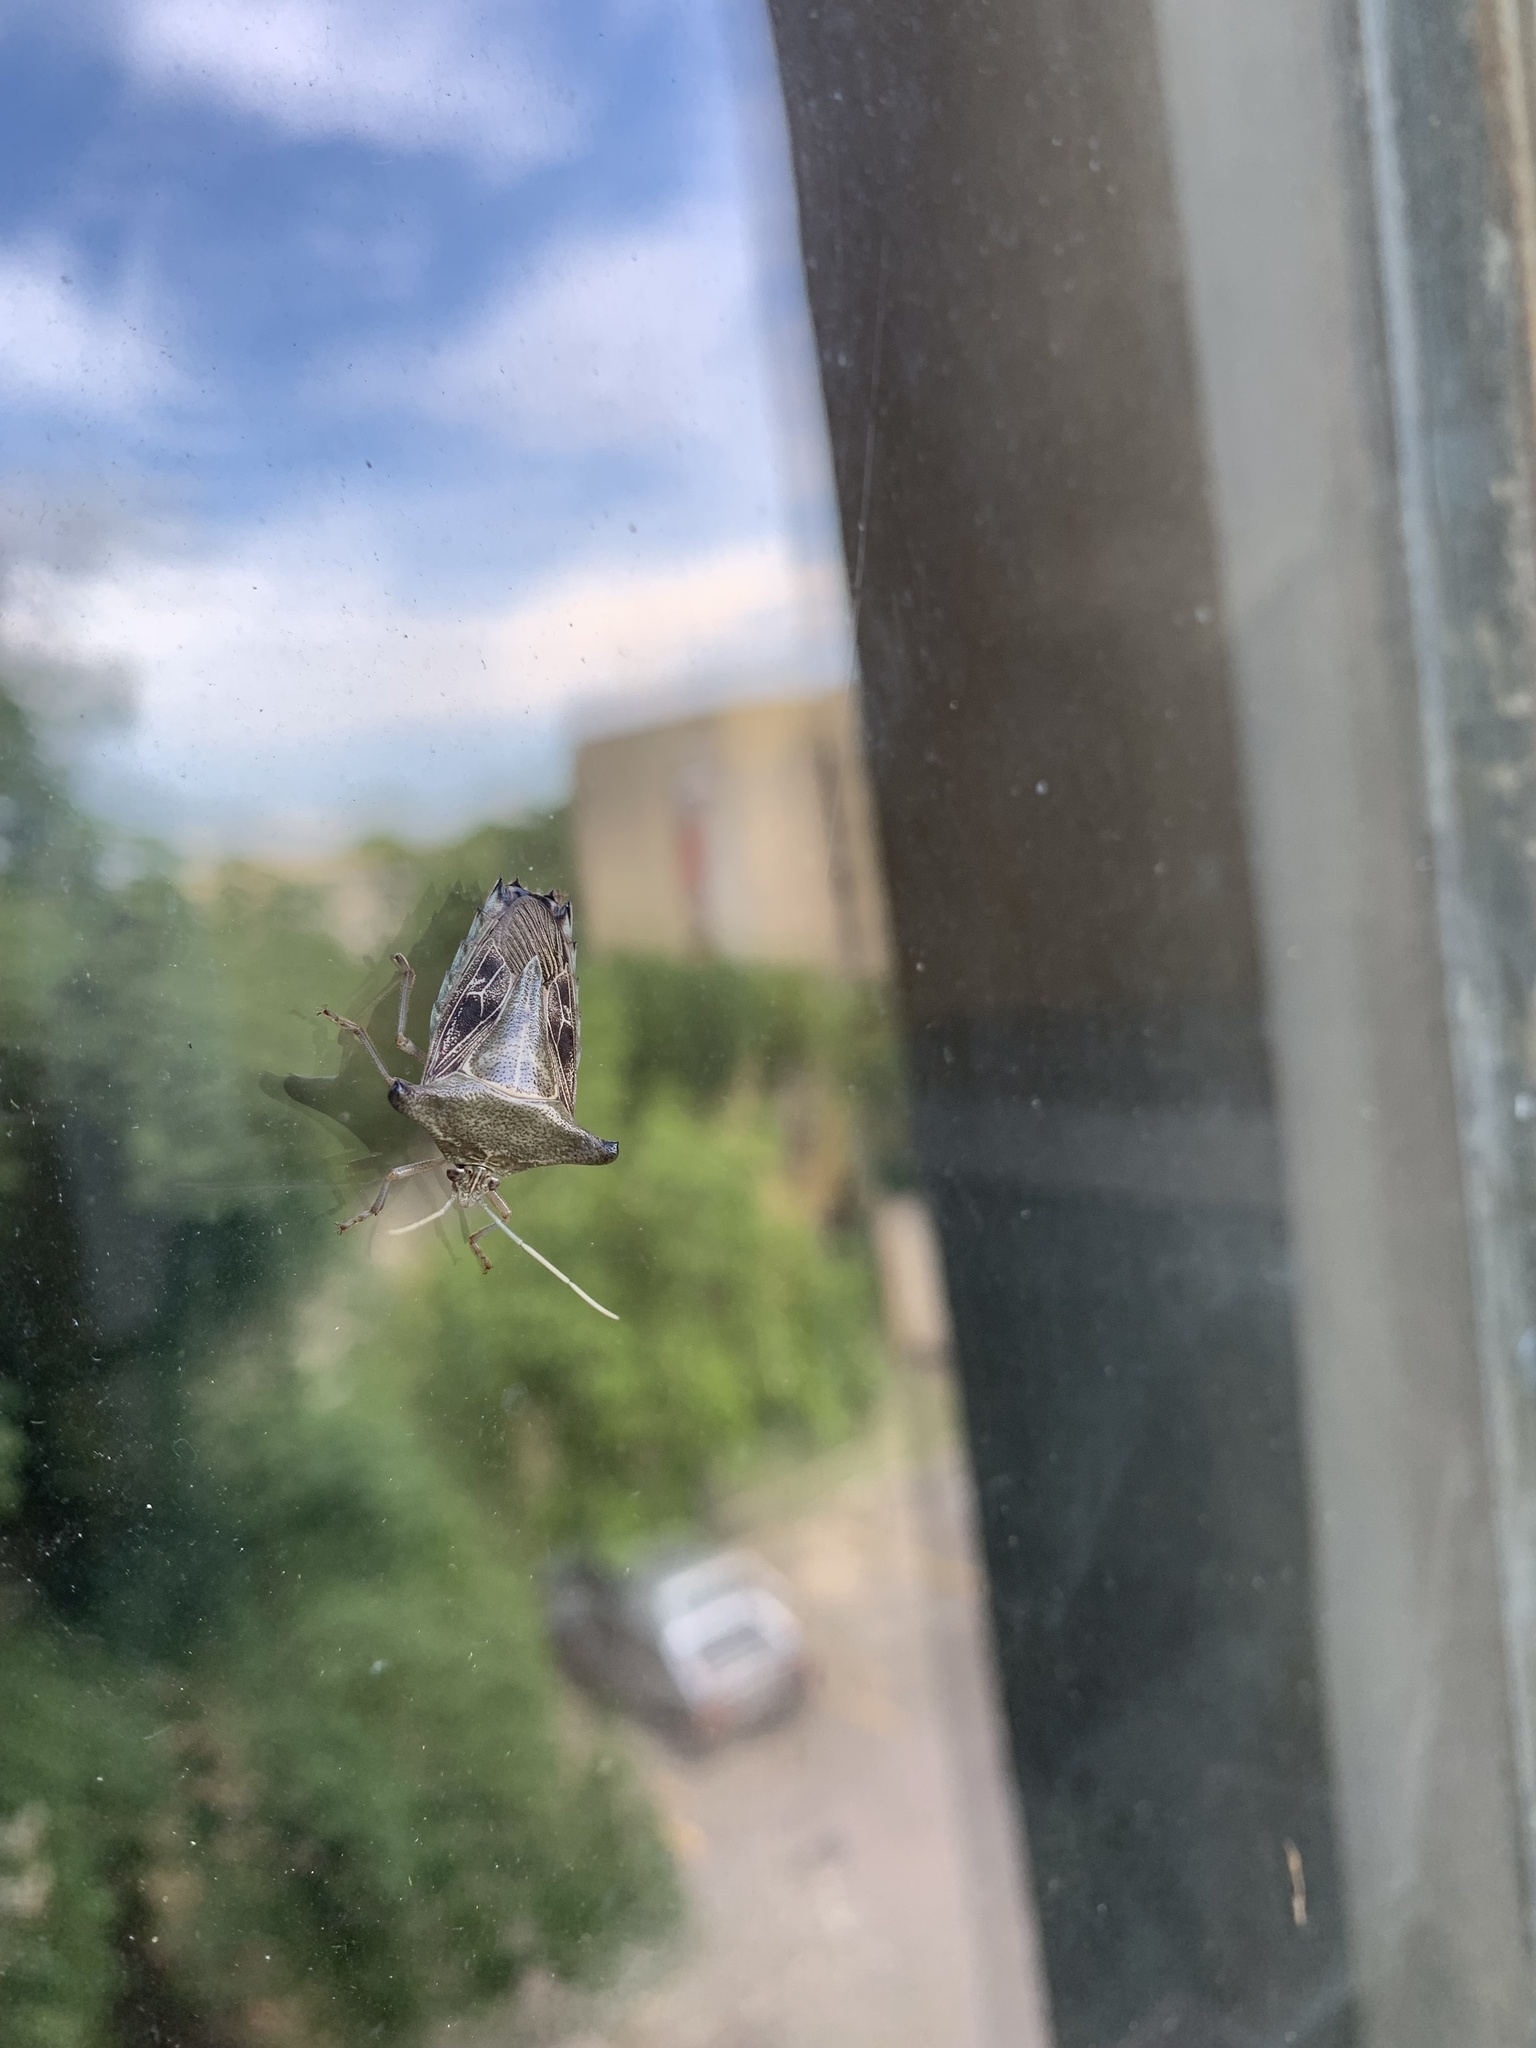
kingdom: Animalia
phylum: Arthropoda
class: Insecta
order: Hemiptera
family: Pentatomidae
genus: Edessa
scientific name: Edessa
